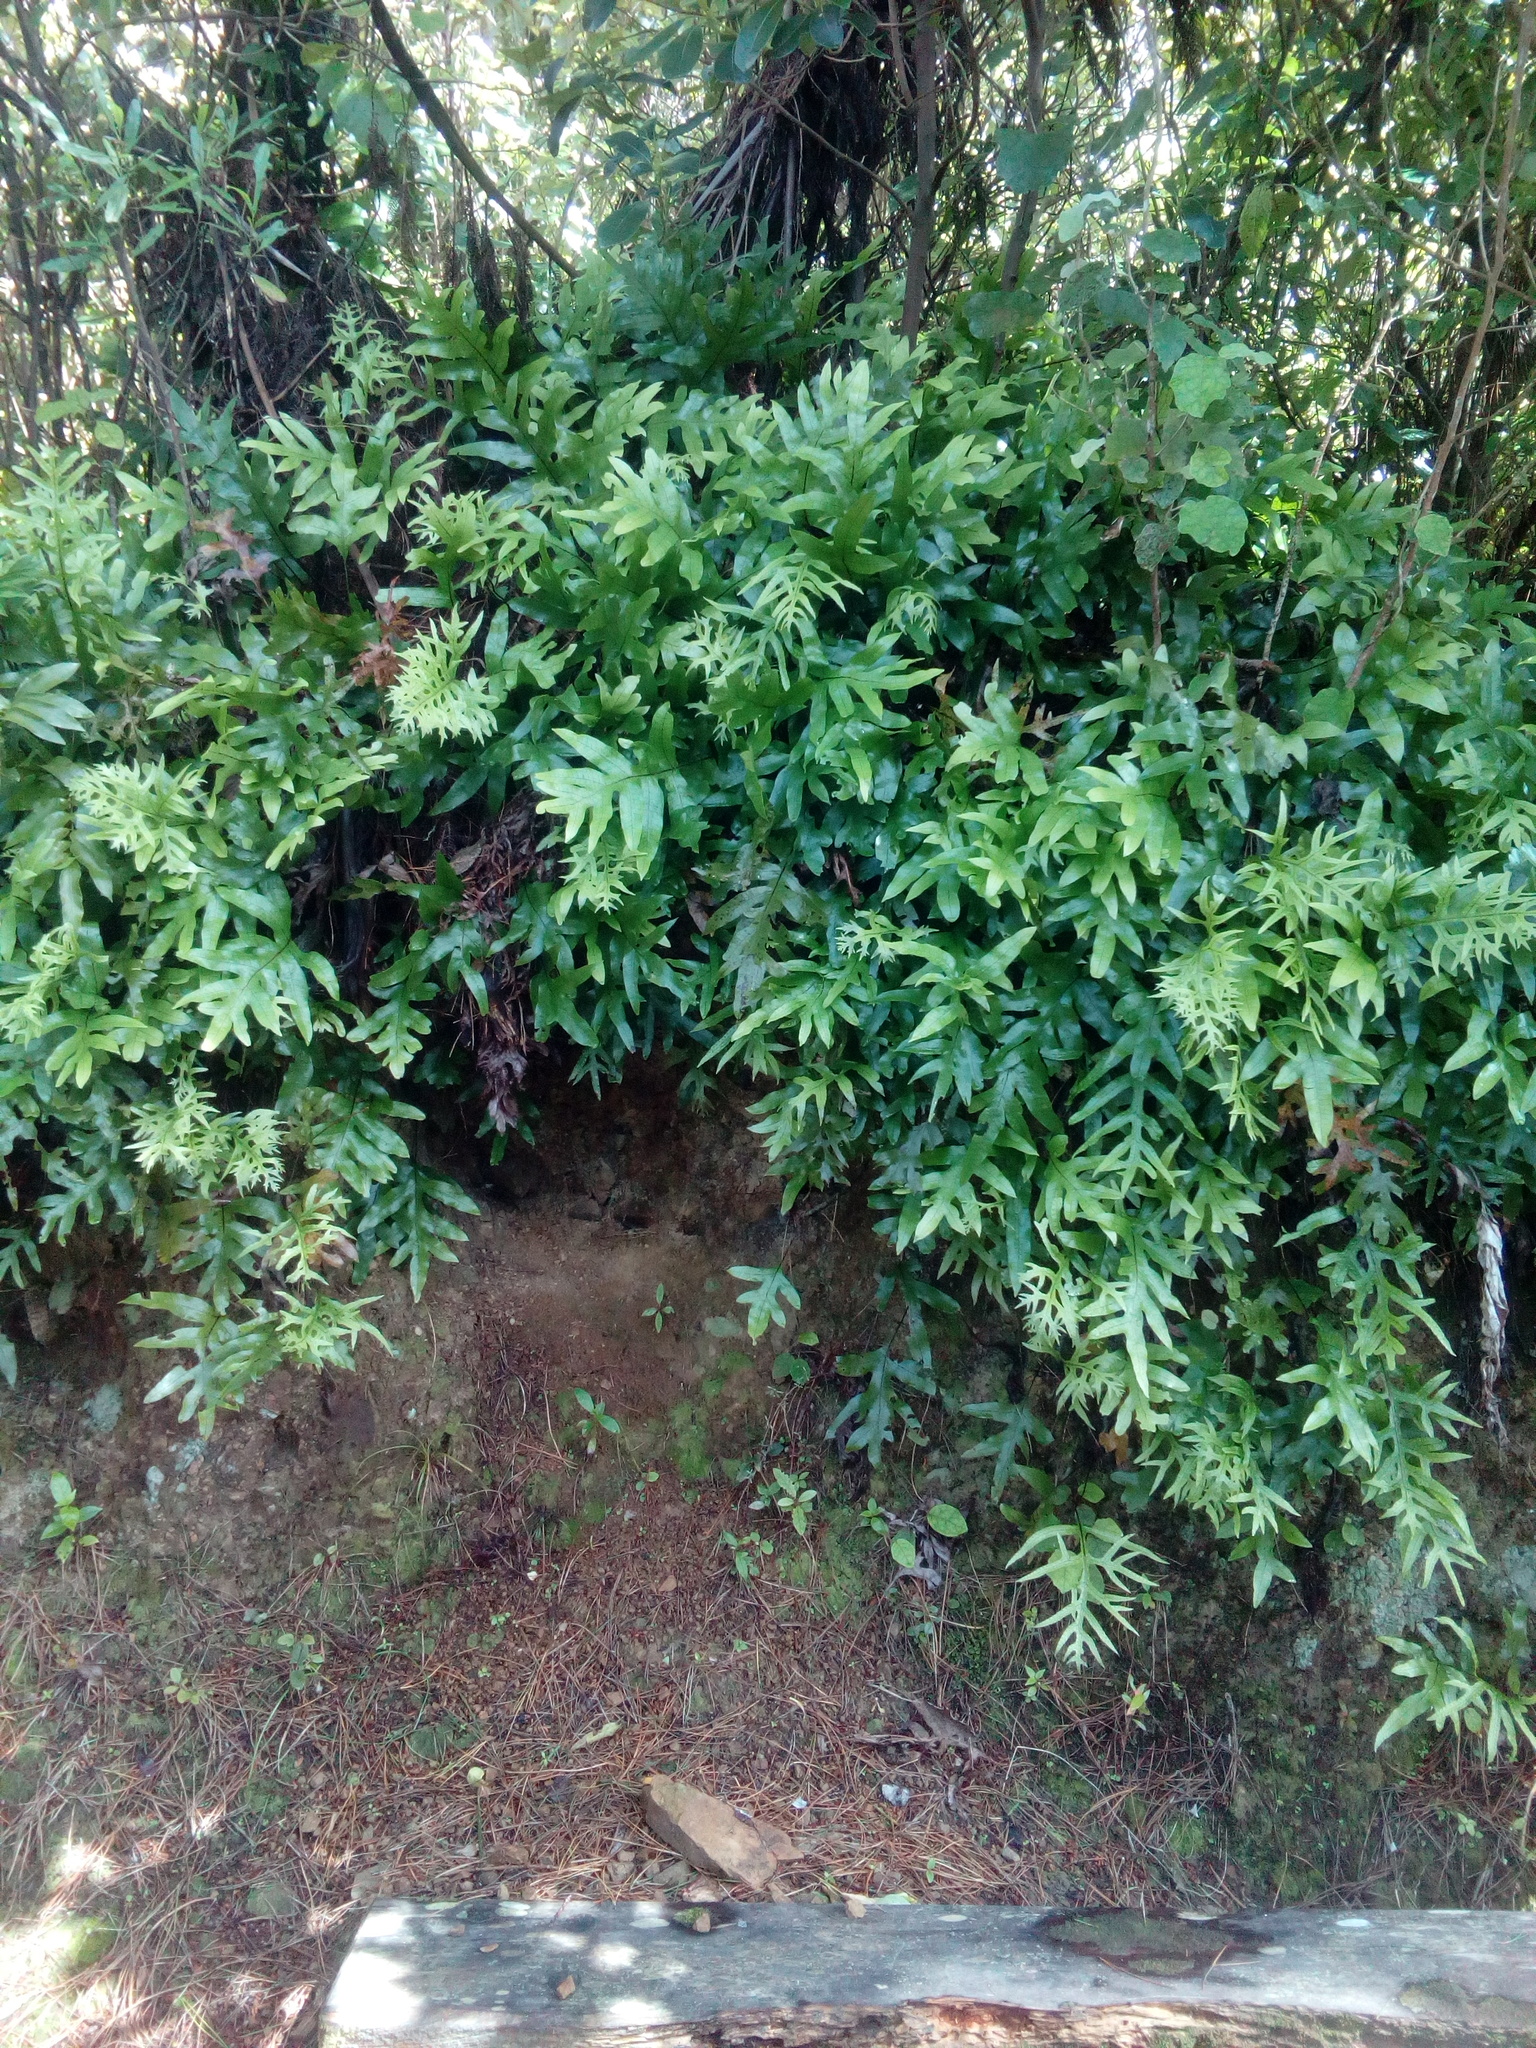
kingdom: Plantae
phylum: Tracheophyta
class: Polypodiopsida
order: Polypodiales
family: Polypodiaceae
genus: Lecanopteris
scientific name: Lecanopteris pustulata
